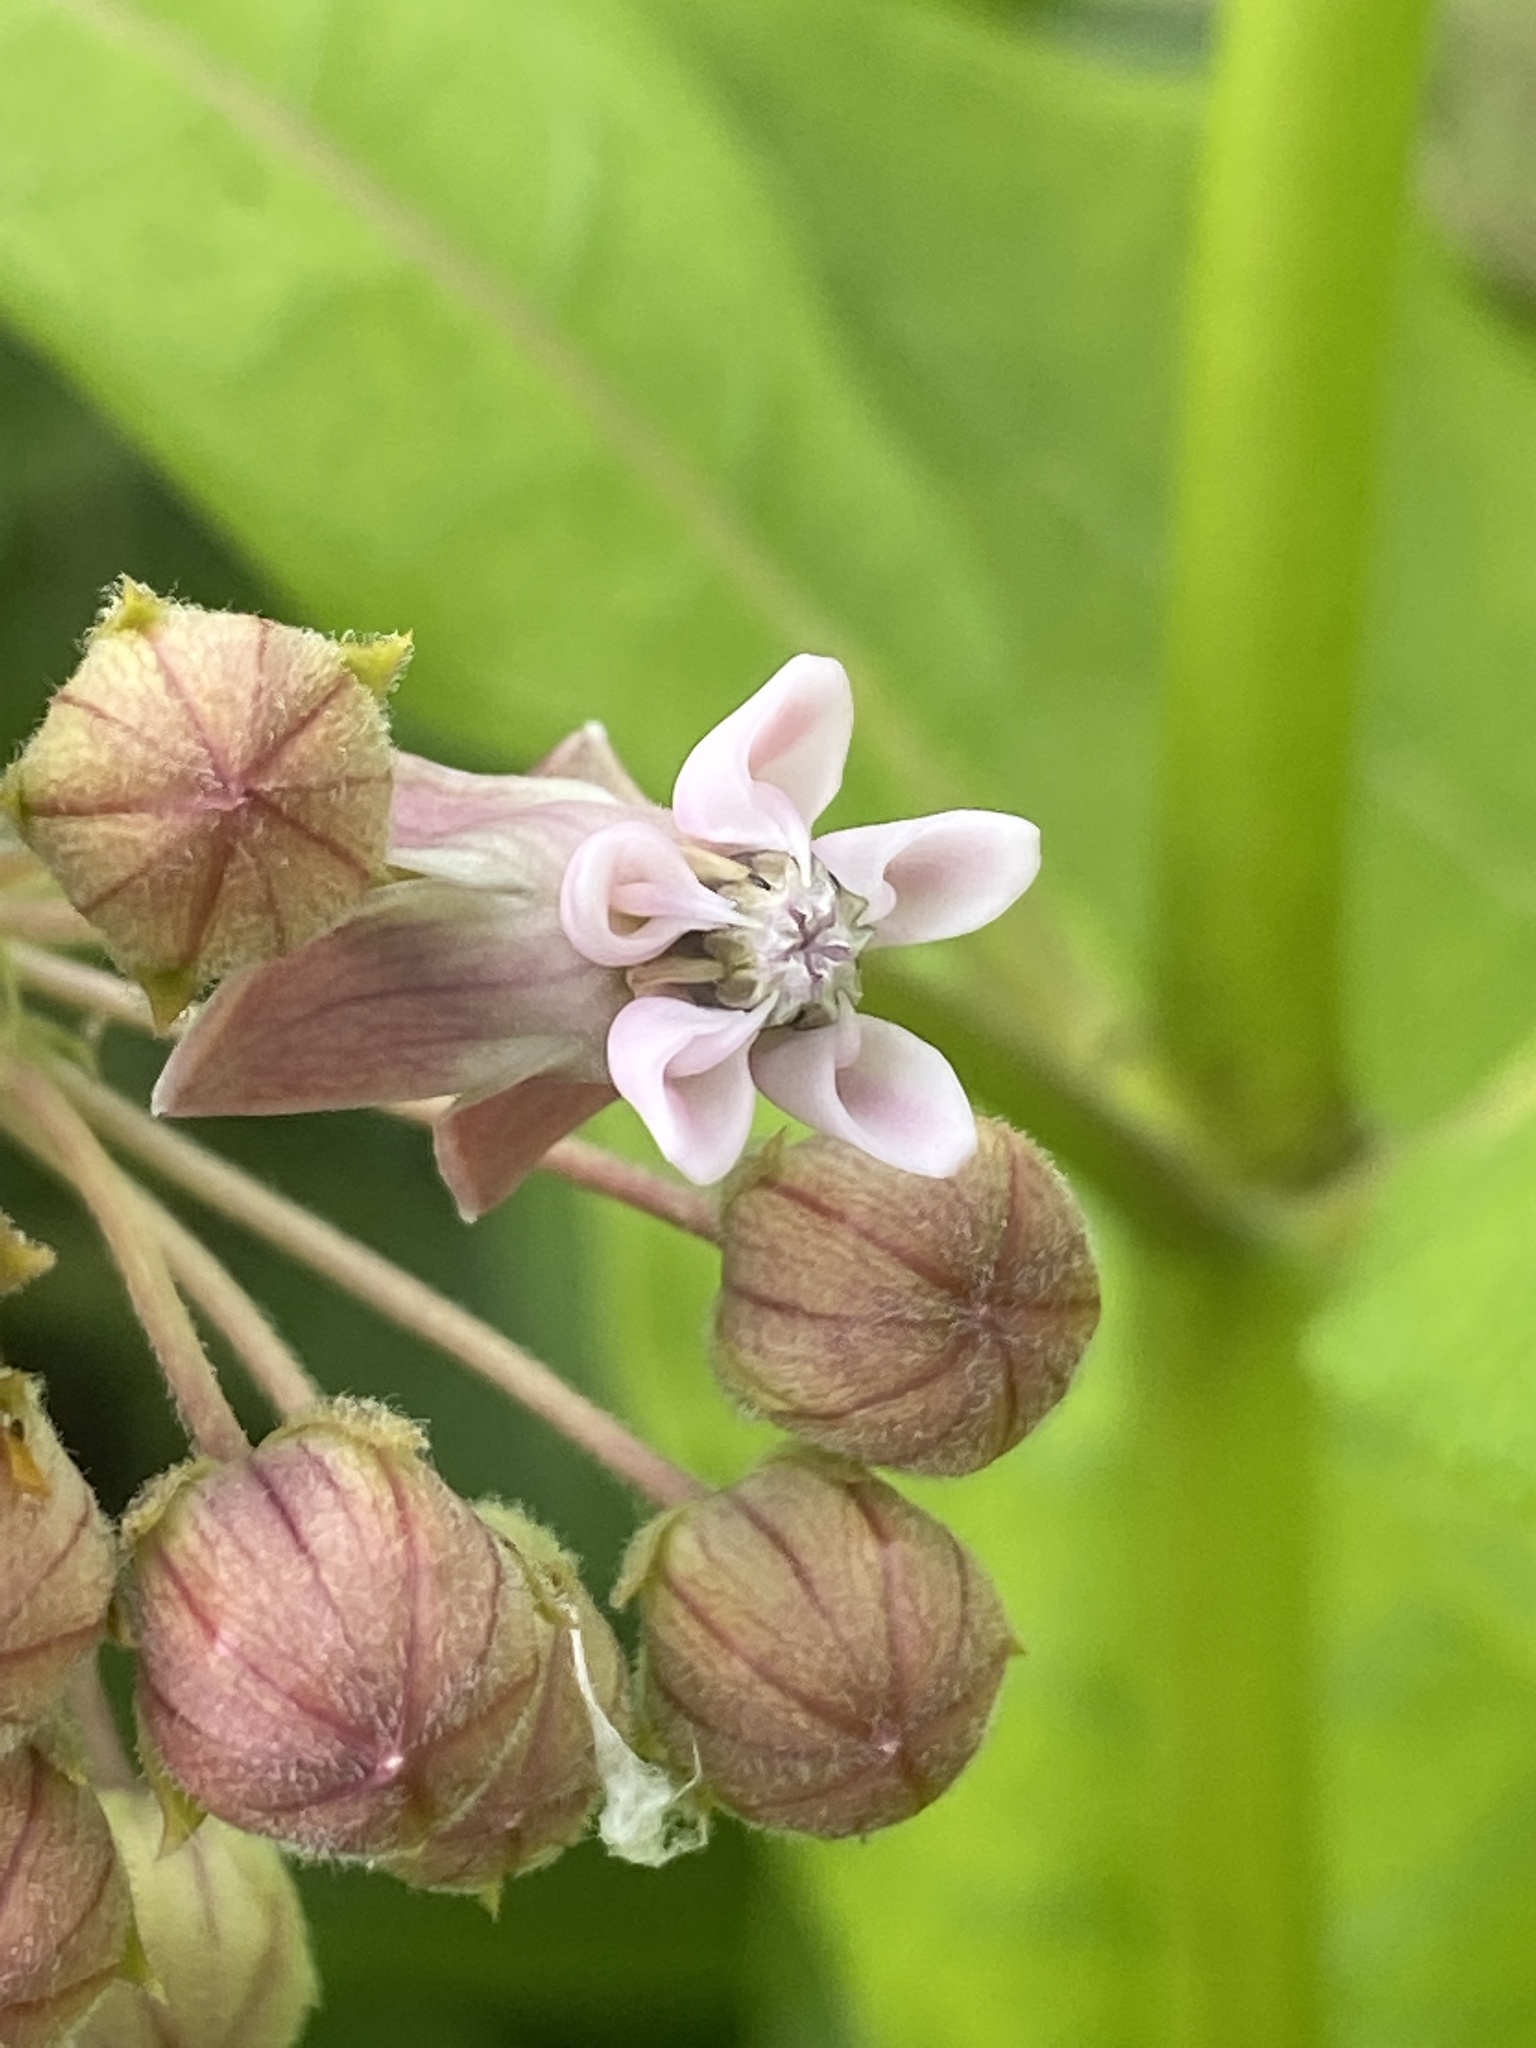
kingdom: Plantae
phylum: Tracheophyta
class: Magnoliopsida
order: Gentianales
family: Apocynaceae
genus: Asclepias
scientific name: Asclepias syriaca
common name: Common milkweed
